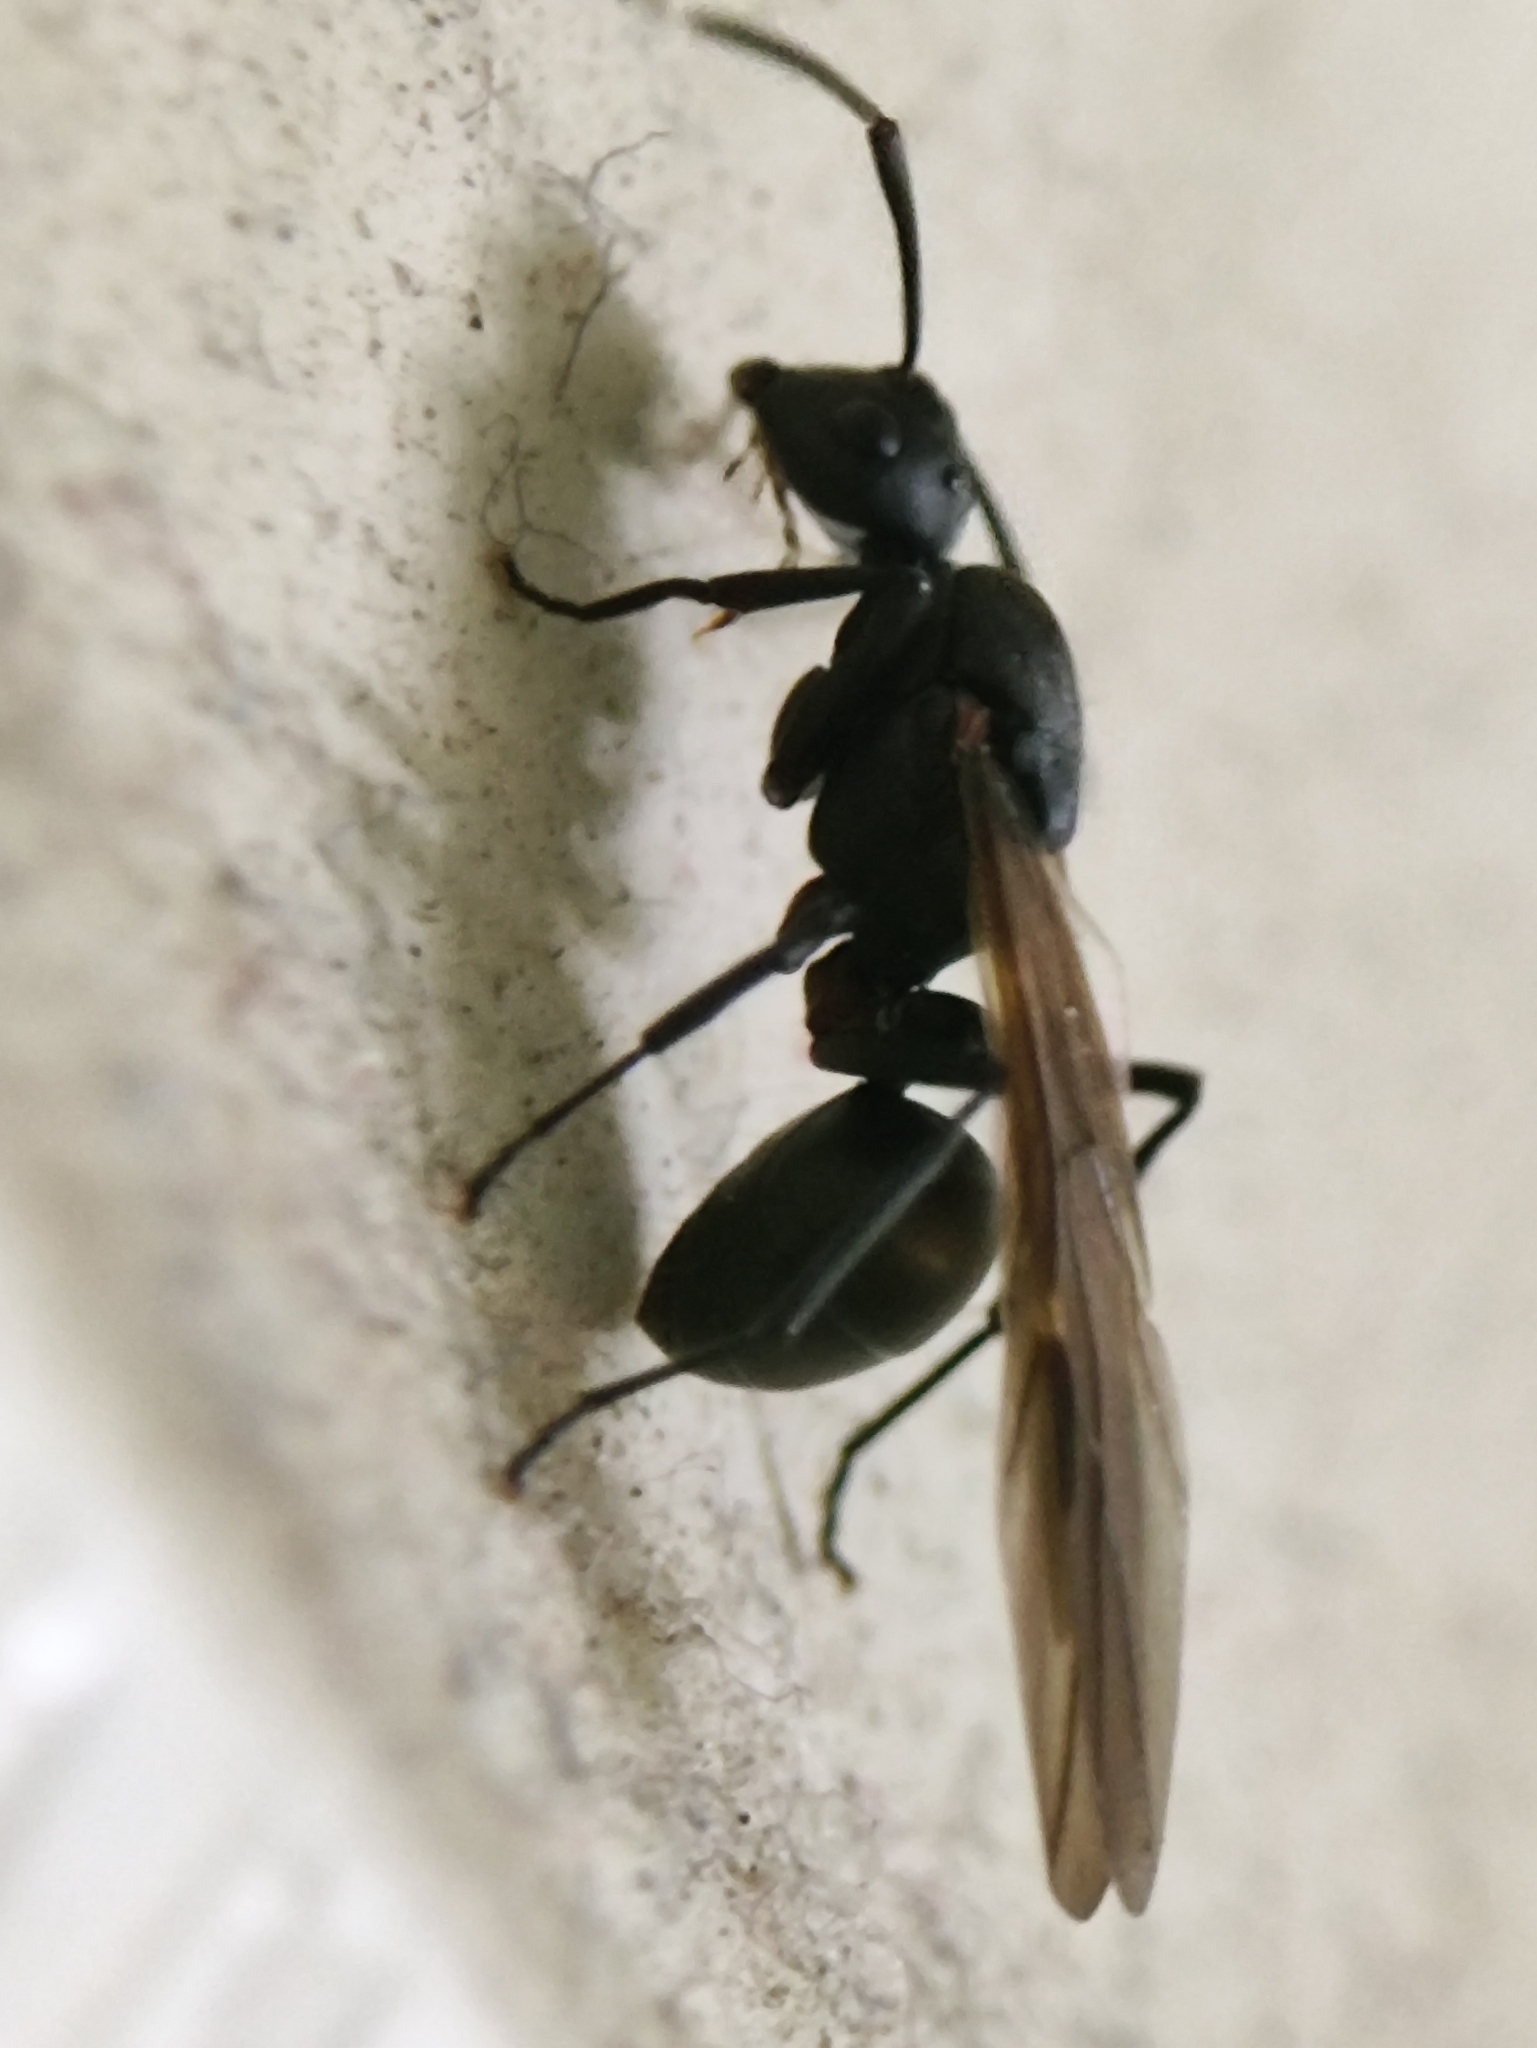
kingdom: Animalia
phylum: Arthropoda
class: Insecta
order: Hymenoptera
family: Formicidae
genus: Polyrhachis
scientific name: Polyrhachis hippomanes
